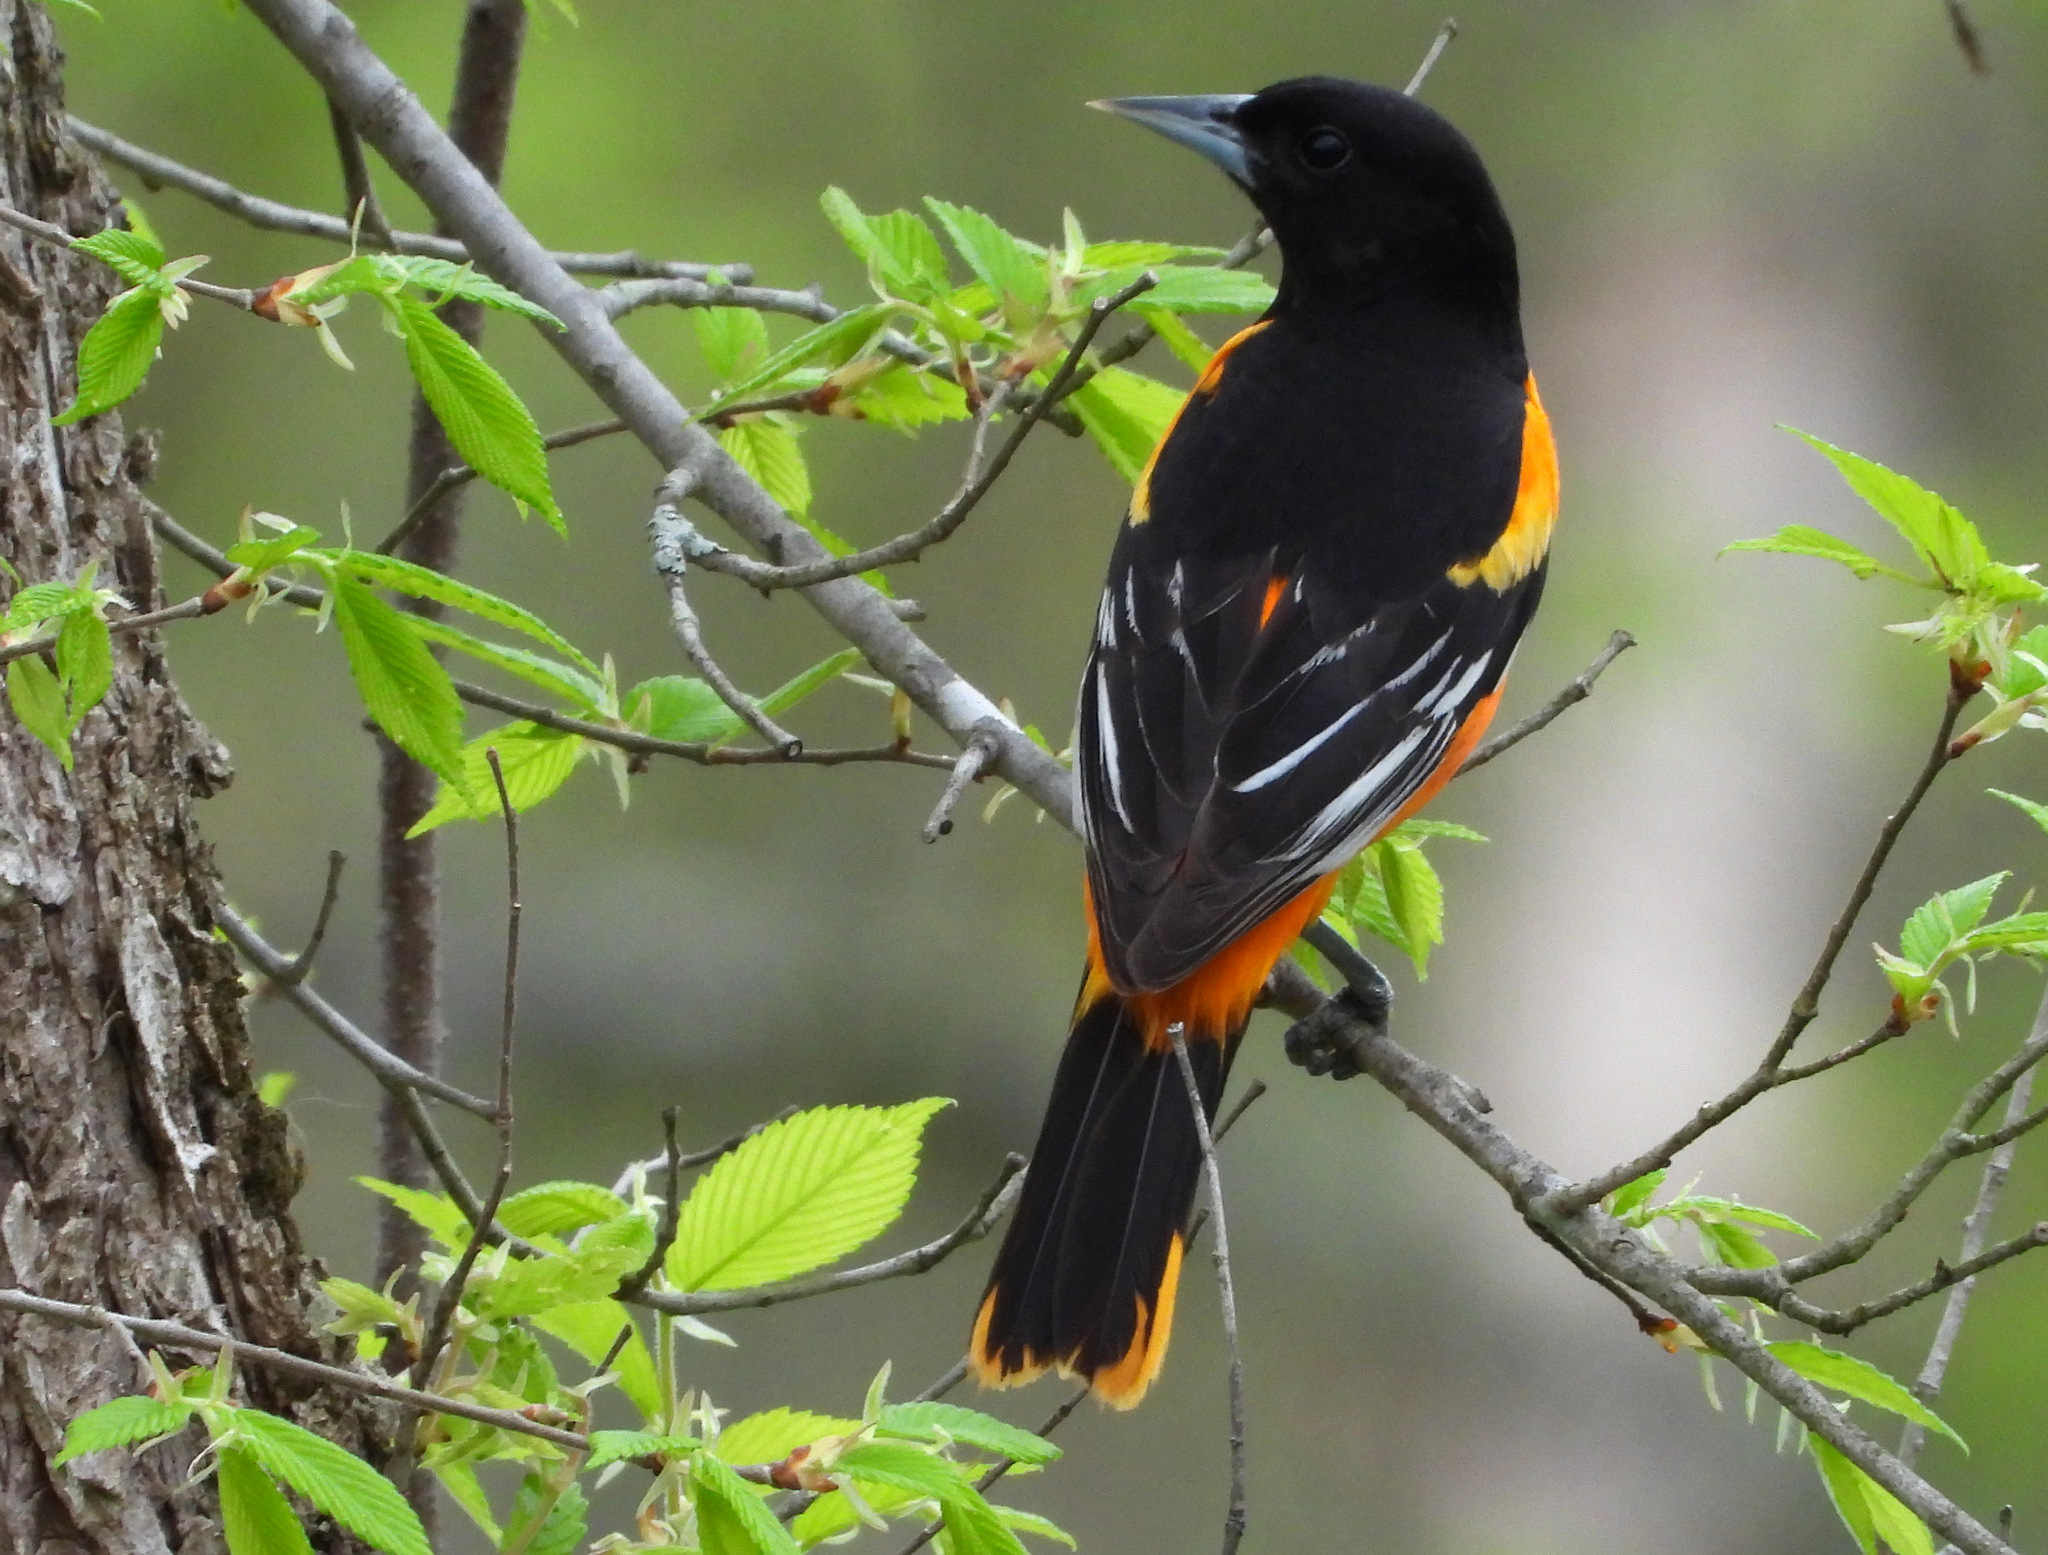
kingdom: Animalia
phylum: Chordata
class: Aves
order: Passeriformes
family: Icteridae
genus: Icterus
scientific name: Icterus galbula
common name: Baltimore oriole
